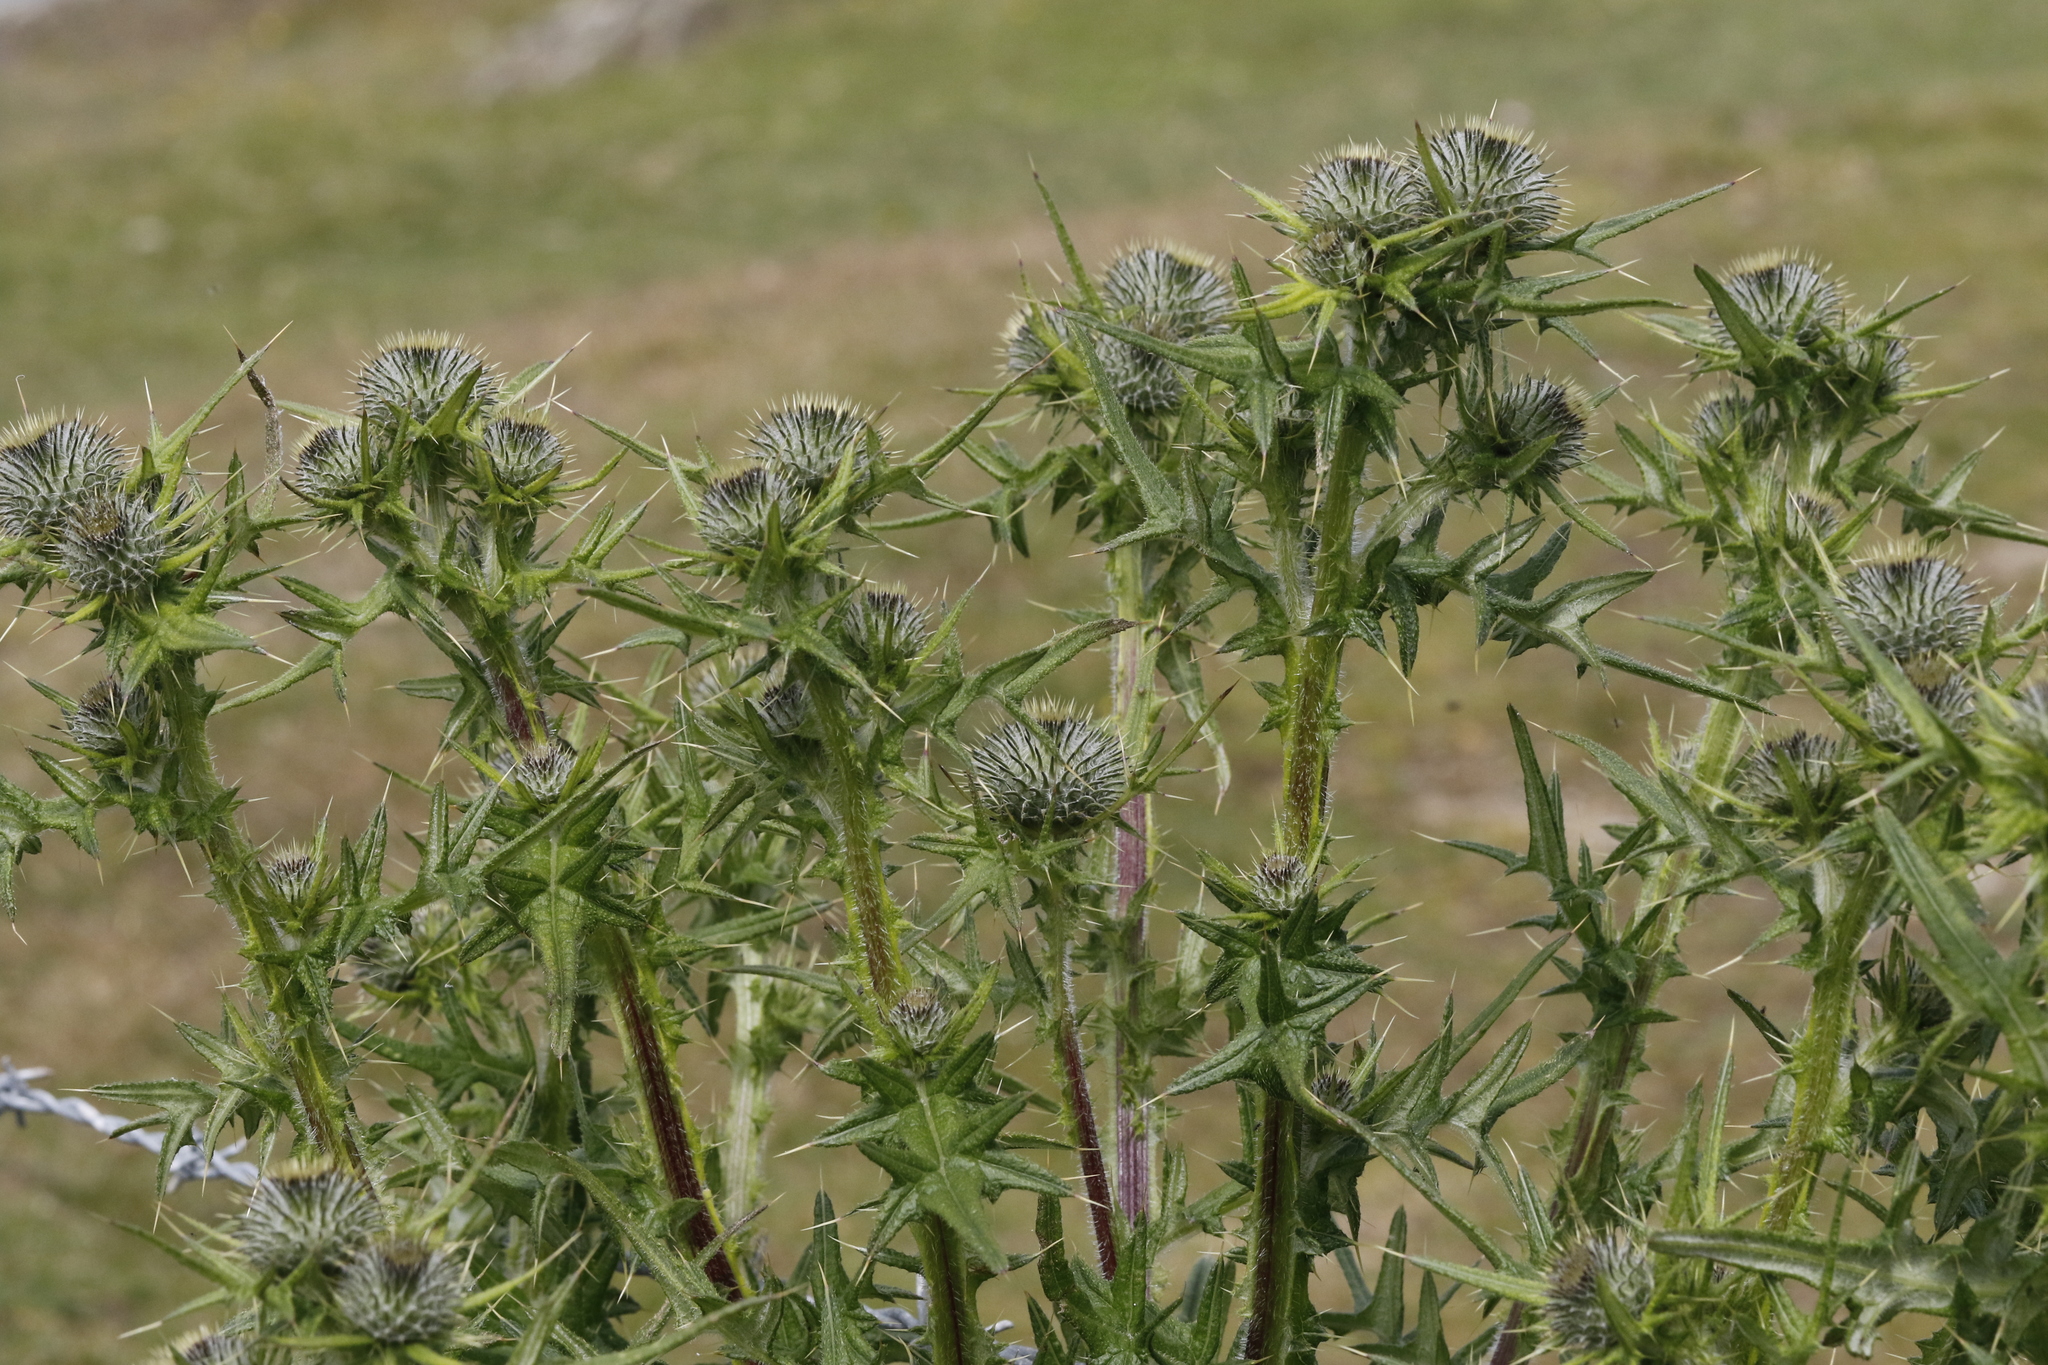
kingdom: Plantae
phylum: Tracheophyta
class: Magnoliopsida
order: Asterales
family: Asteraceae
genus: Cirsium
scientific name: Cirsium vulgare
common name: Bull thistle
